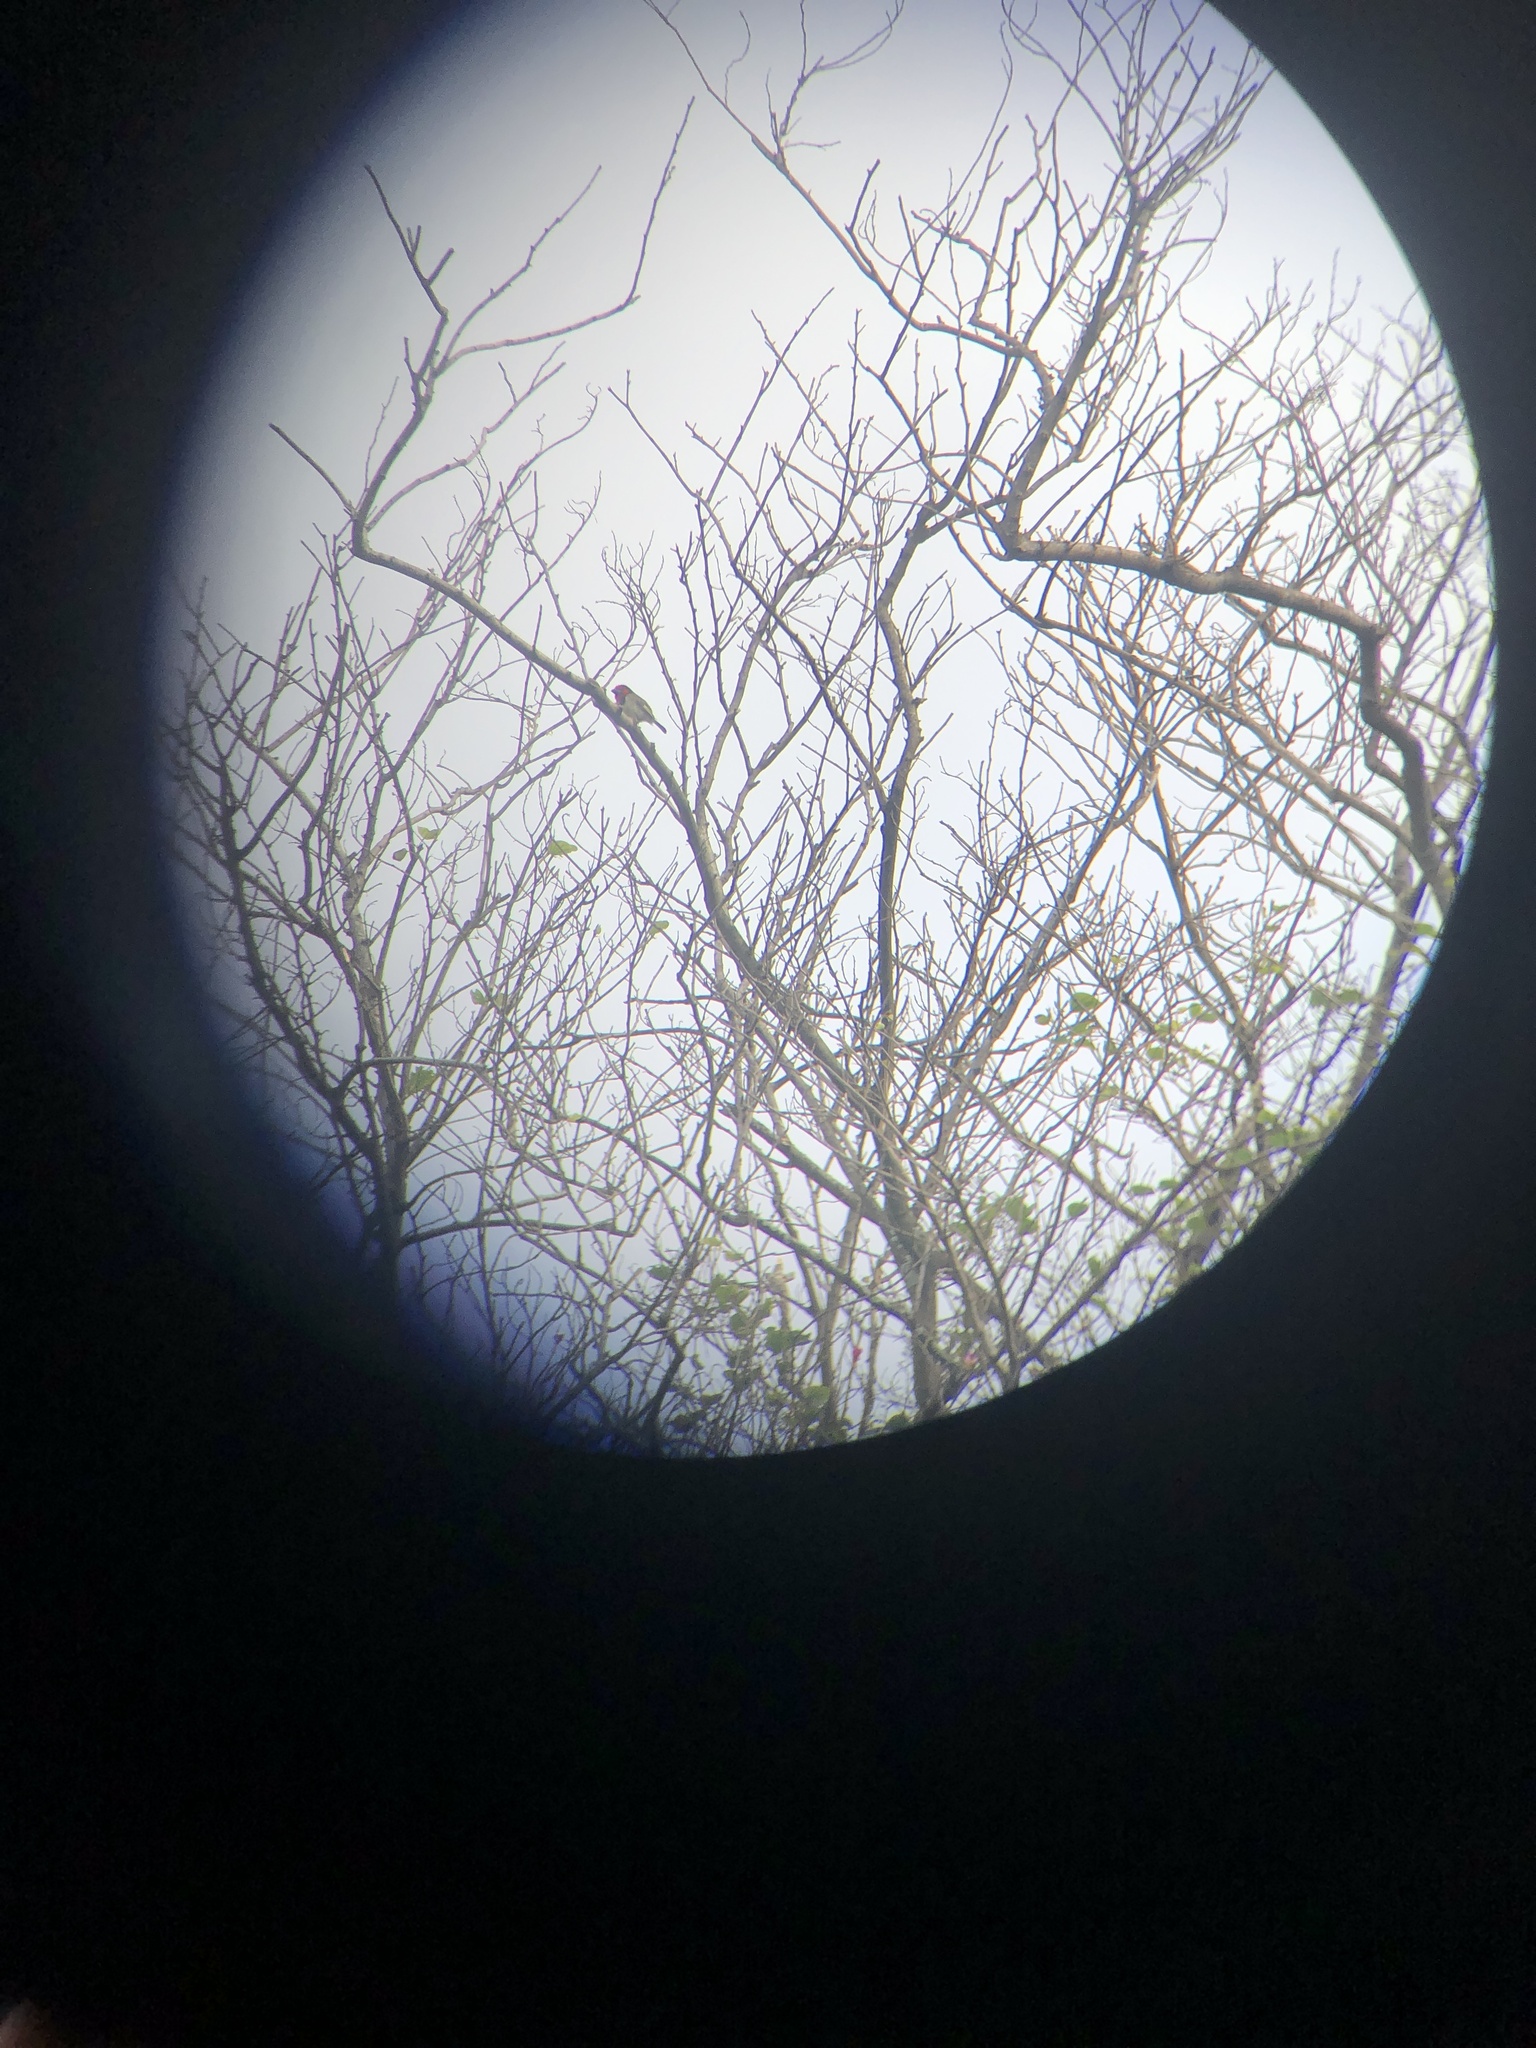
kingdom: Animalia
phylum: Chordata
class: Aves
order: Piciformes
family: Lybiidae
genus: Lybius
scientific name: Lybius torquatus
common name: Black-collared barbet
